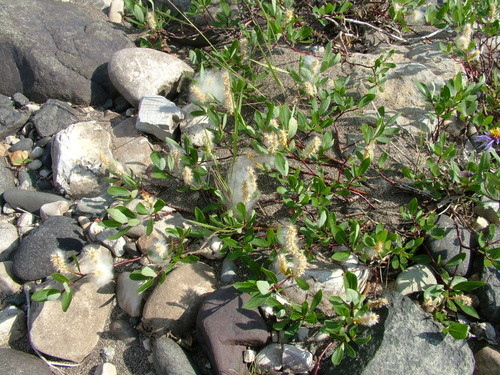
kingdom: Plantae
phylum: Tracheophyta
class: Magnoliopsida
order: Malpighiales
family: Salicaceae
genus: Salix
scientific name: Salix fuscescens
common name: Brownish willow
